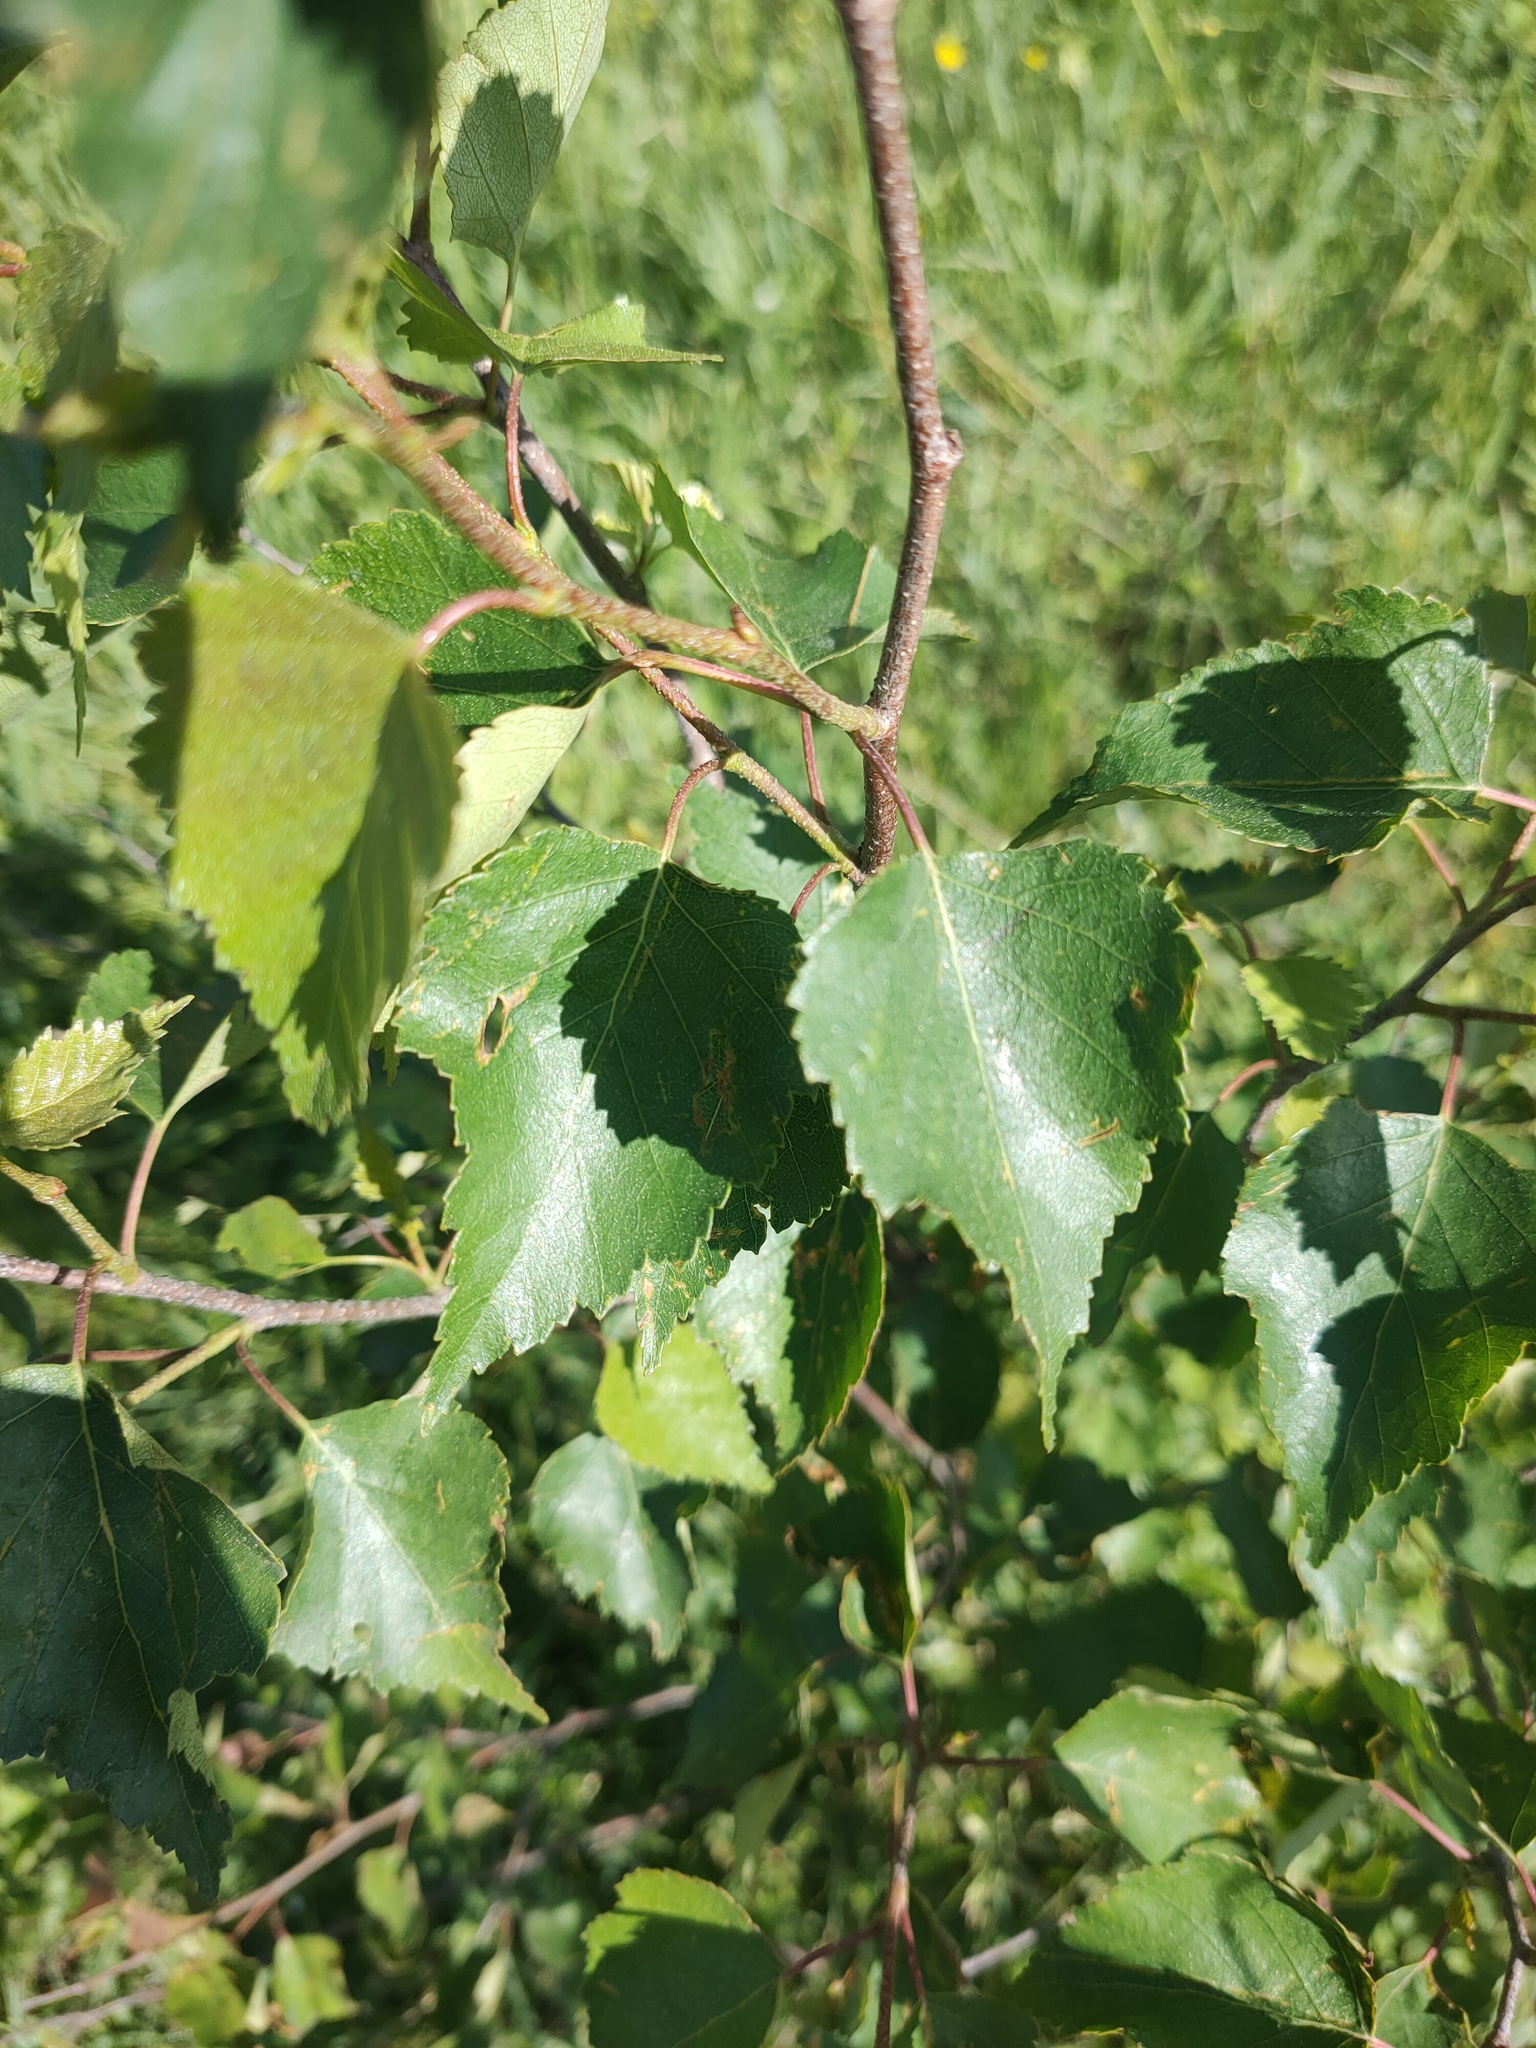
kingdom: Plantae
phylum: Tracheophyta
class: Magnoliopsida
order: Fagales
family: Betulaceae
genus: Betula
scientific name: Betula pendula
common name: Silver birch
